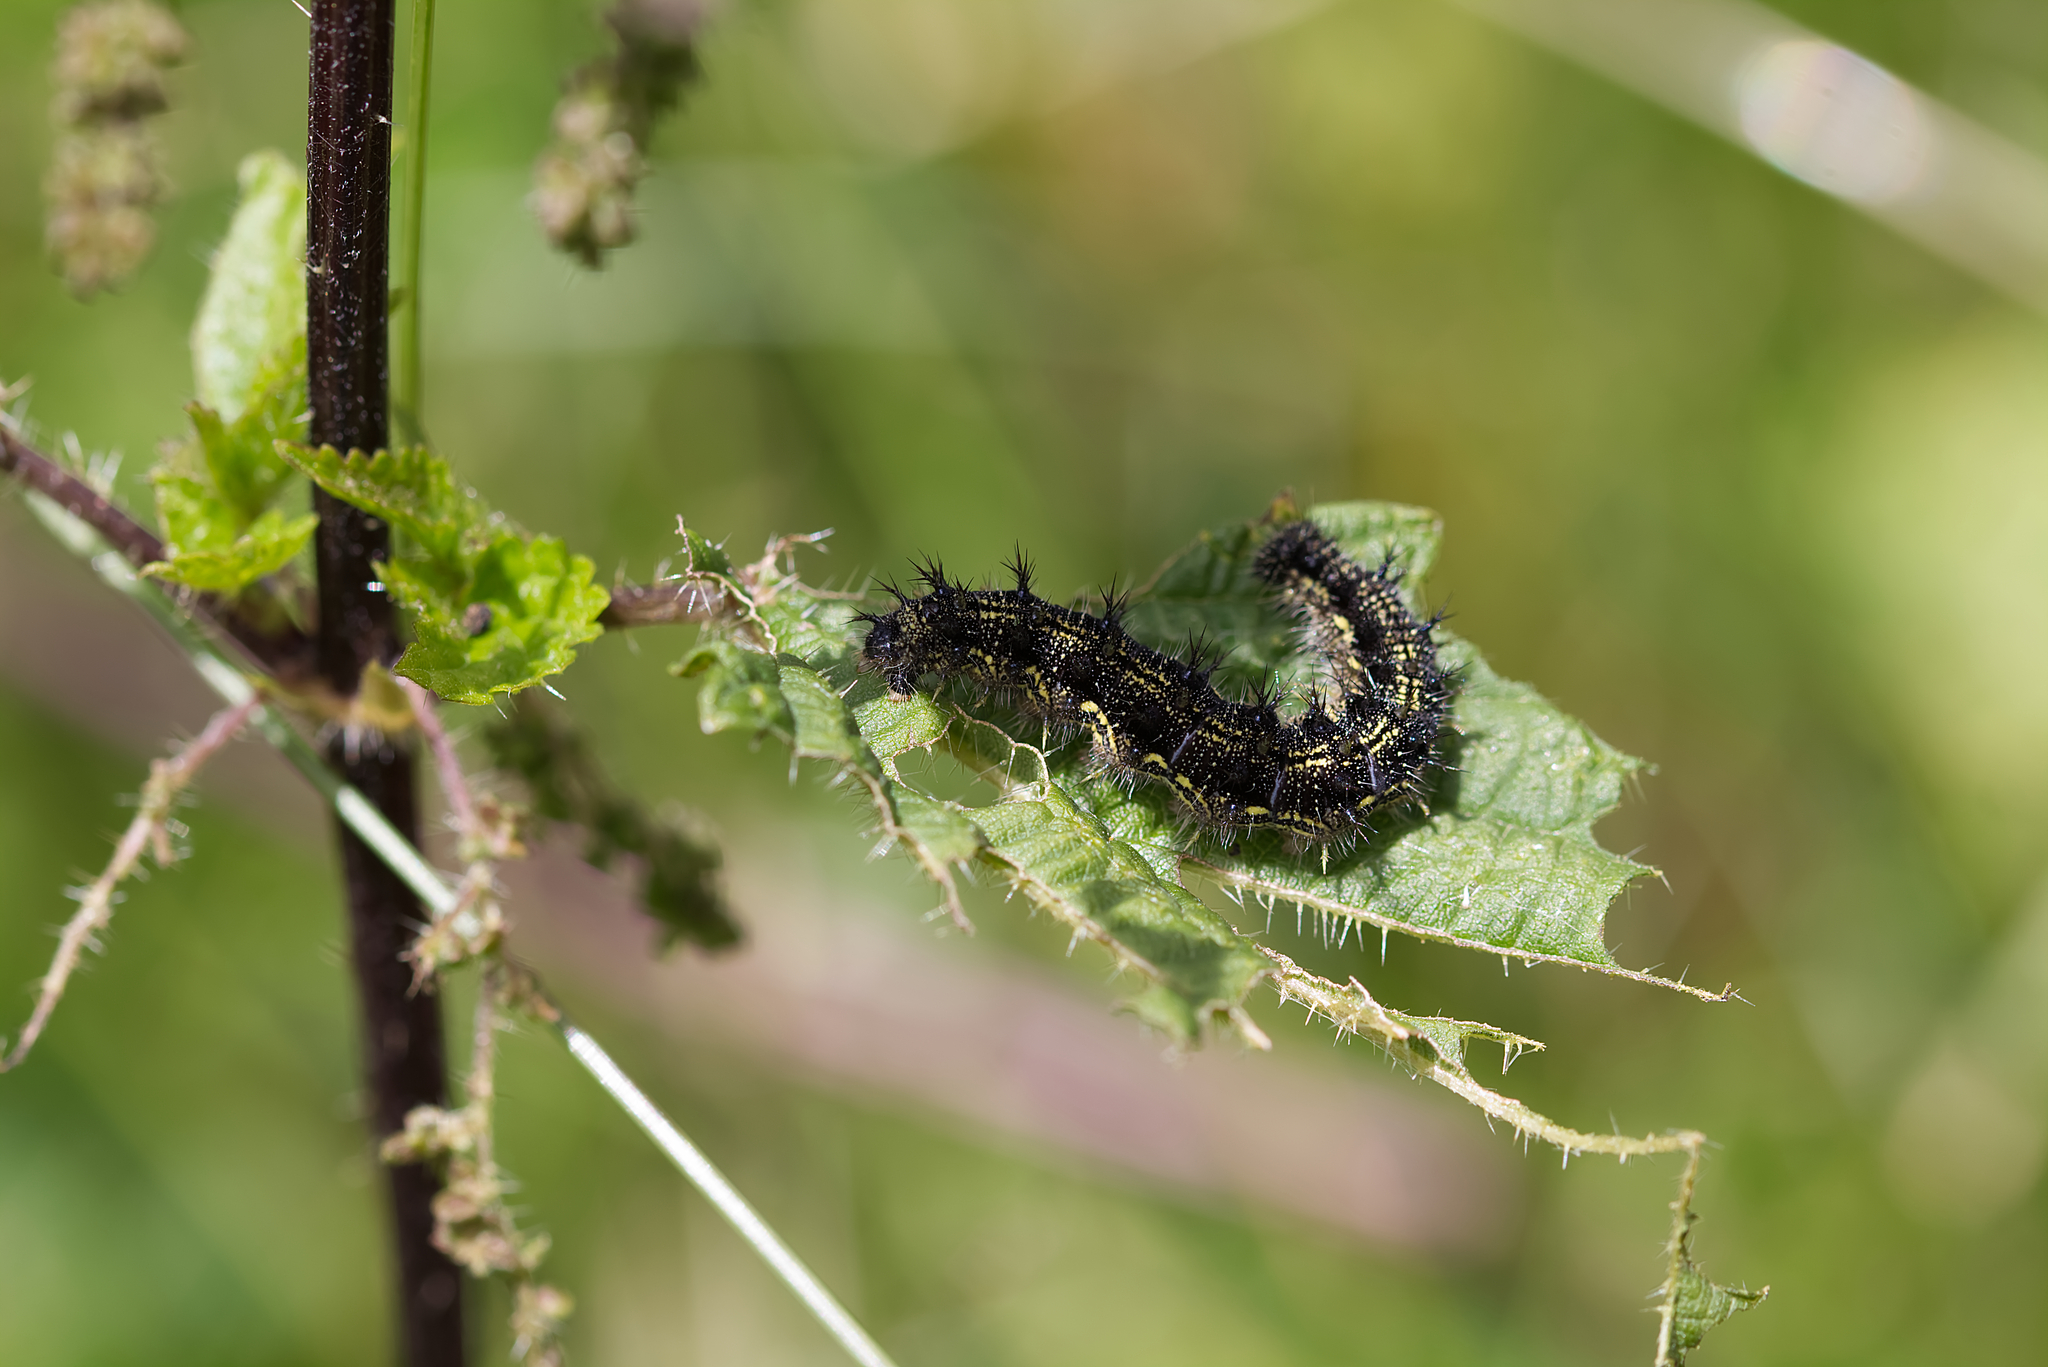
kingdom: Animalia
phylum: Arthropoda
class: Insecta
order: Lepidoptera
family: Nymphalidae
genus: Aglais
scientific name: Aglais urticae
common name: Small tortoiseshell
